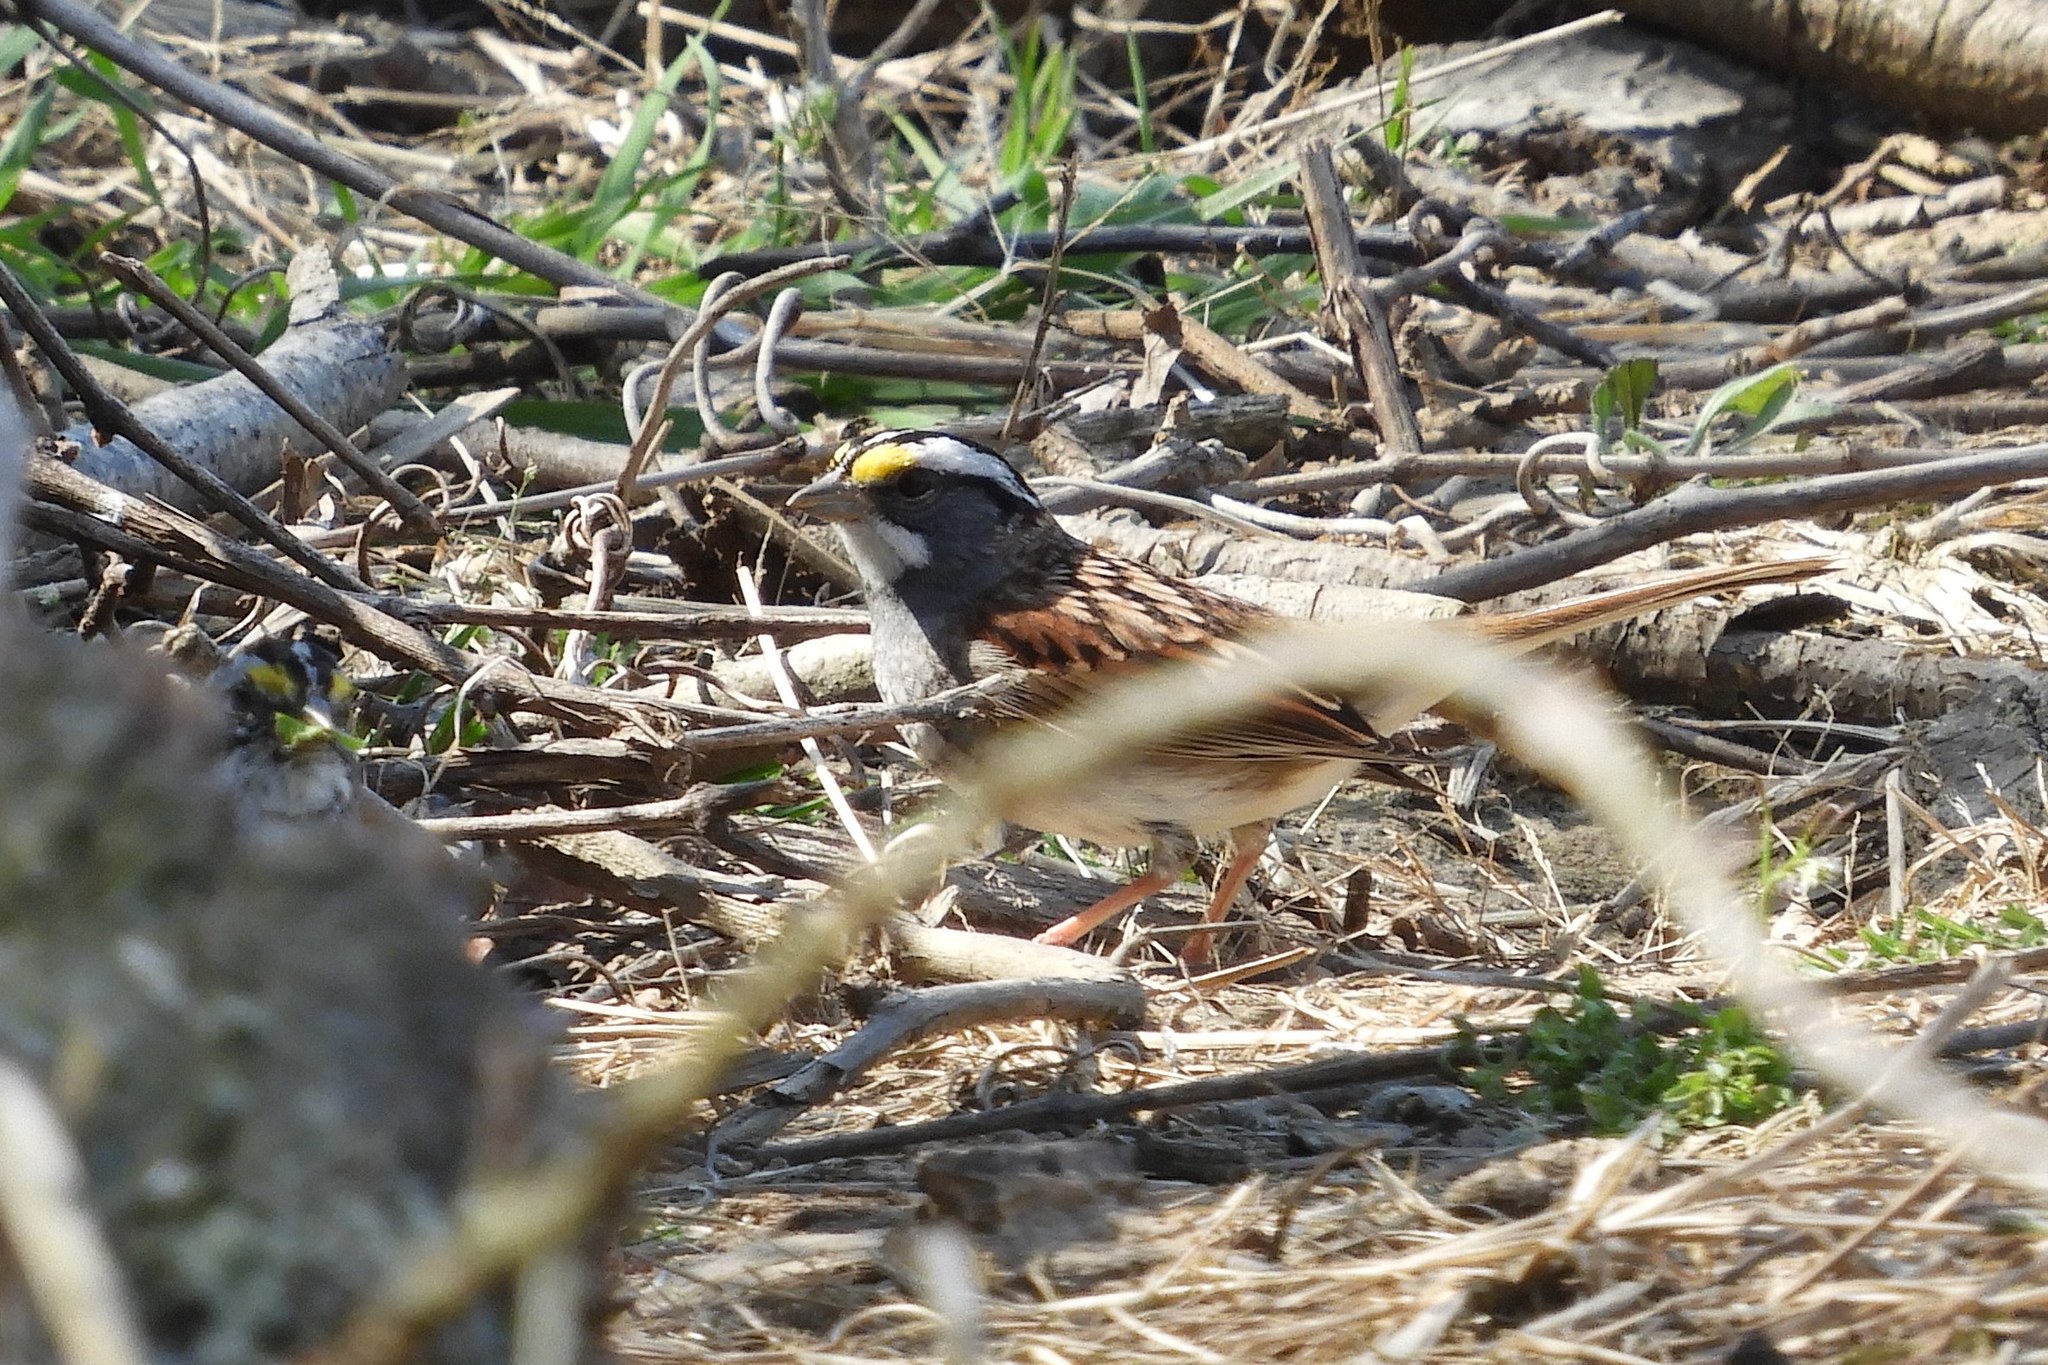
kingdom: Animalia
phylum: Chordata
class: Aves
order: Passeriformes
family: Passerellidae
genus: Zonotrichia
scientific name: Zonotrichia albicollis
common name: White-throated sparrow
